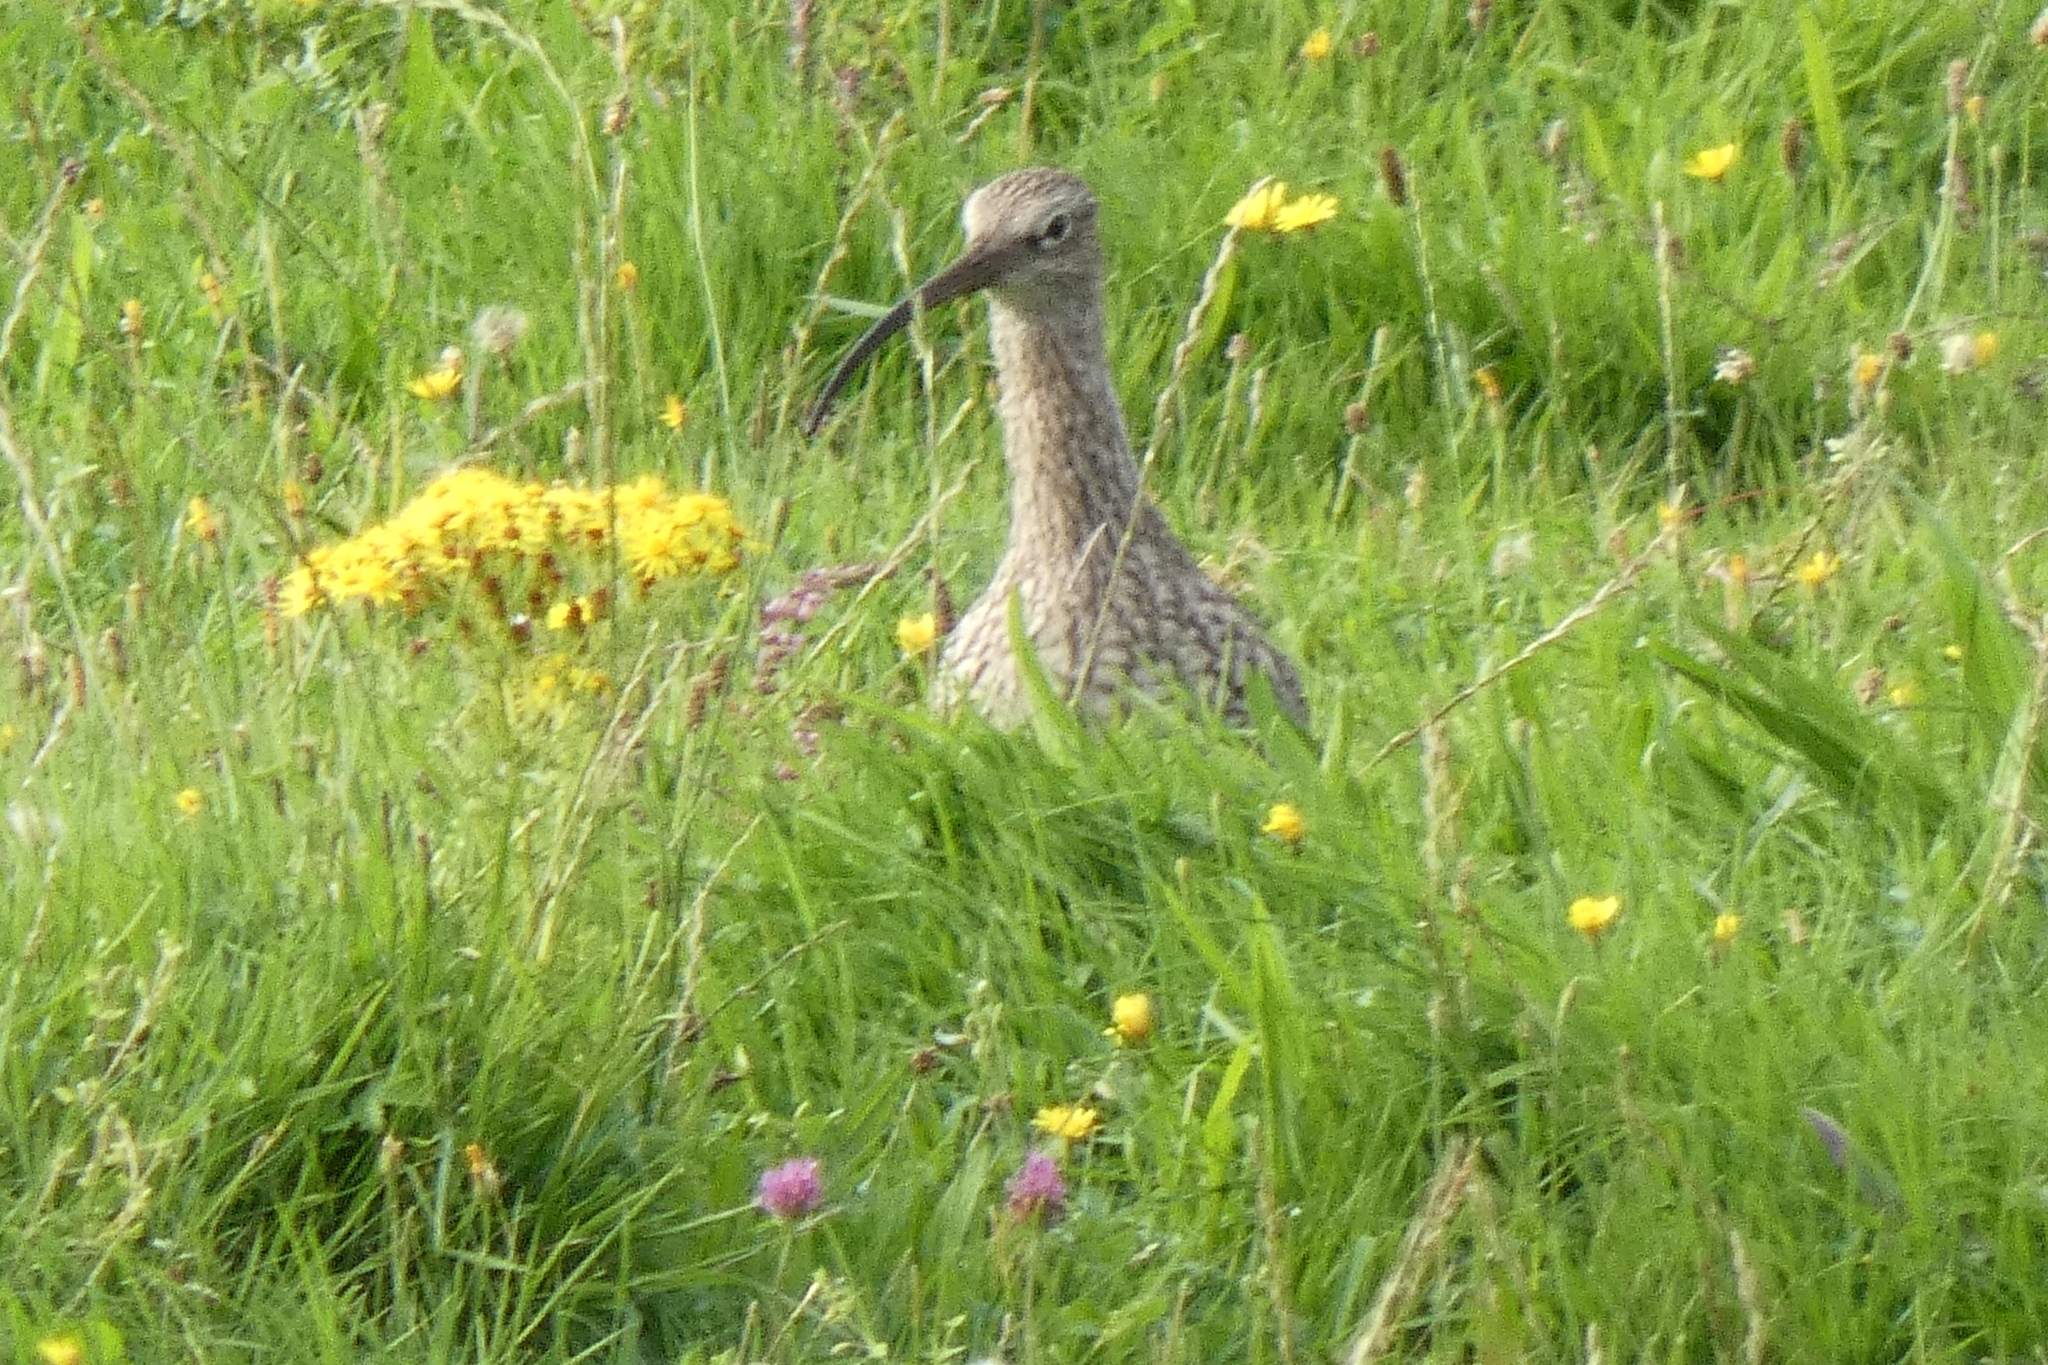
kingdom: Animalia
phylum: Chordata
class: Aves
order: Charadriiformes
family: Scolopacidae
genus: Numenius
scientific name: Numenius arquata
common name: Eurasian curlew
